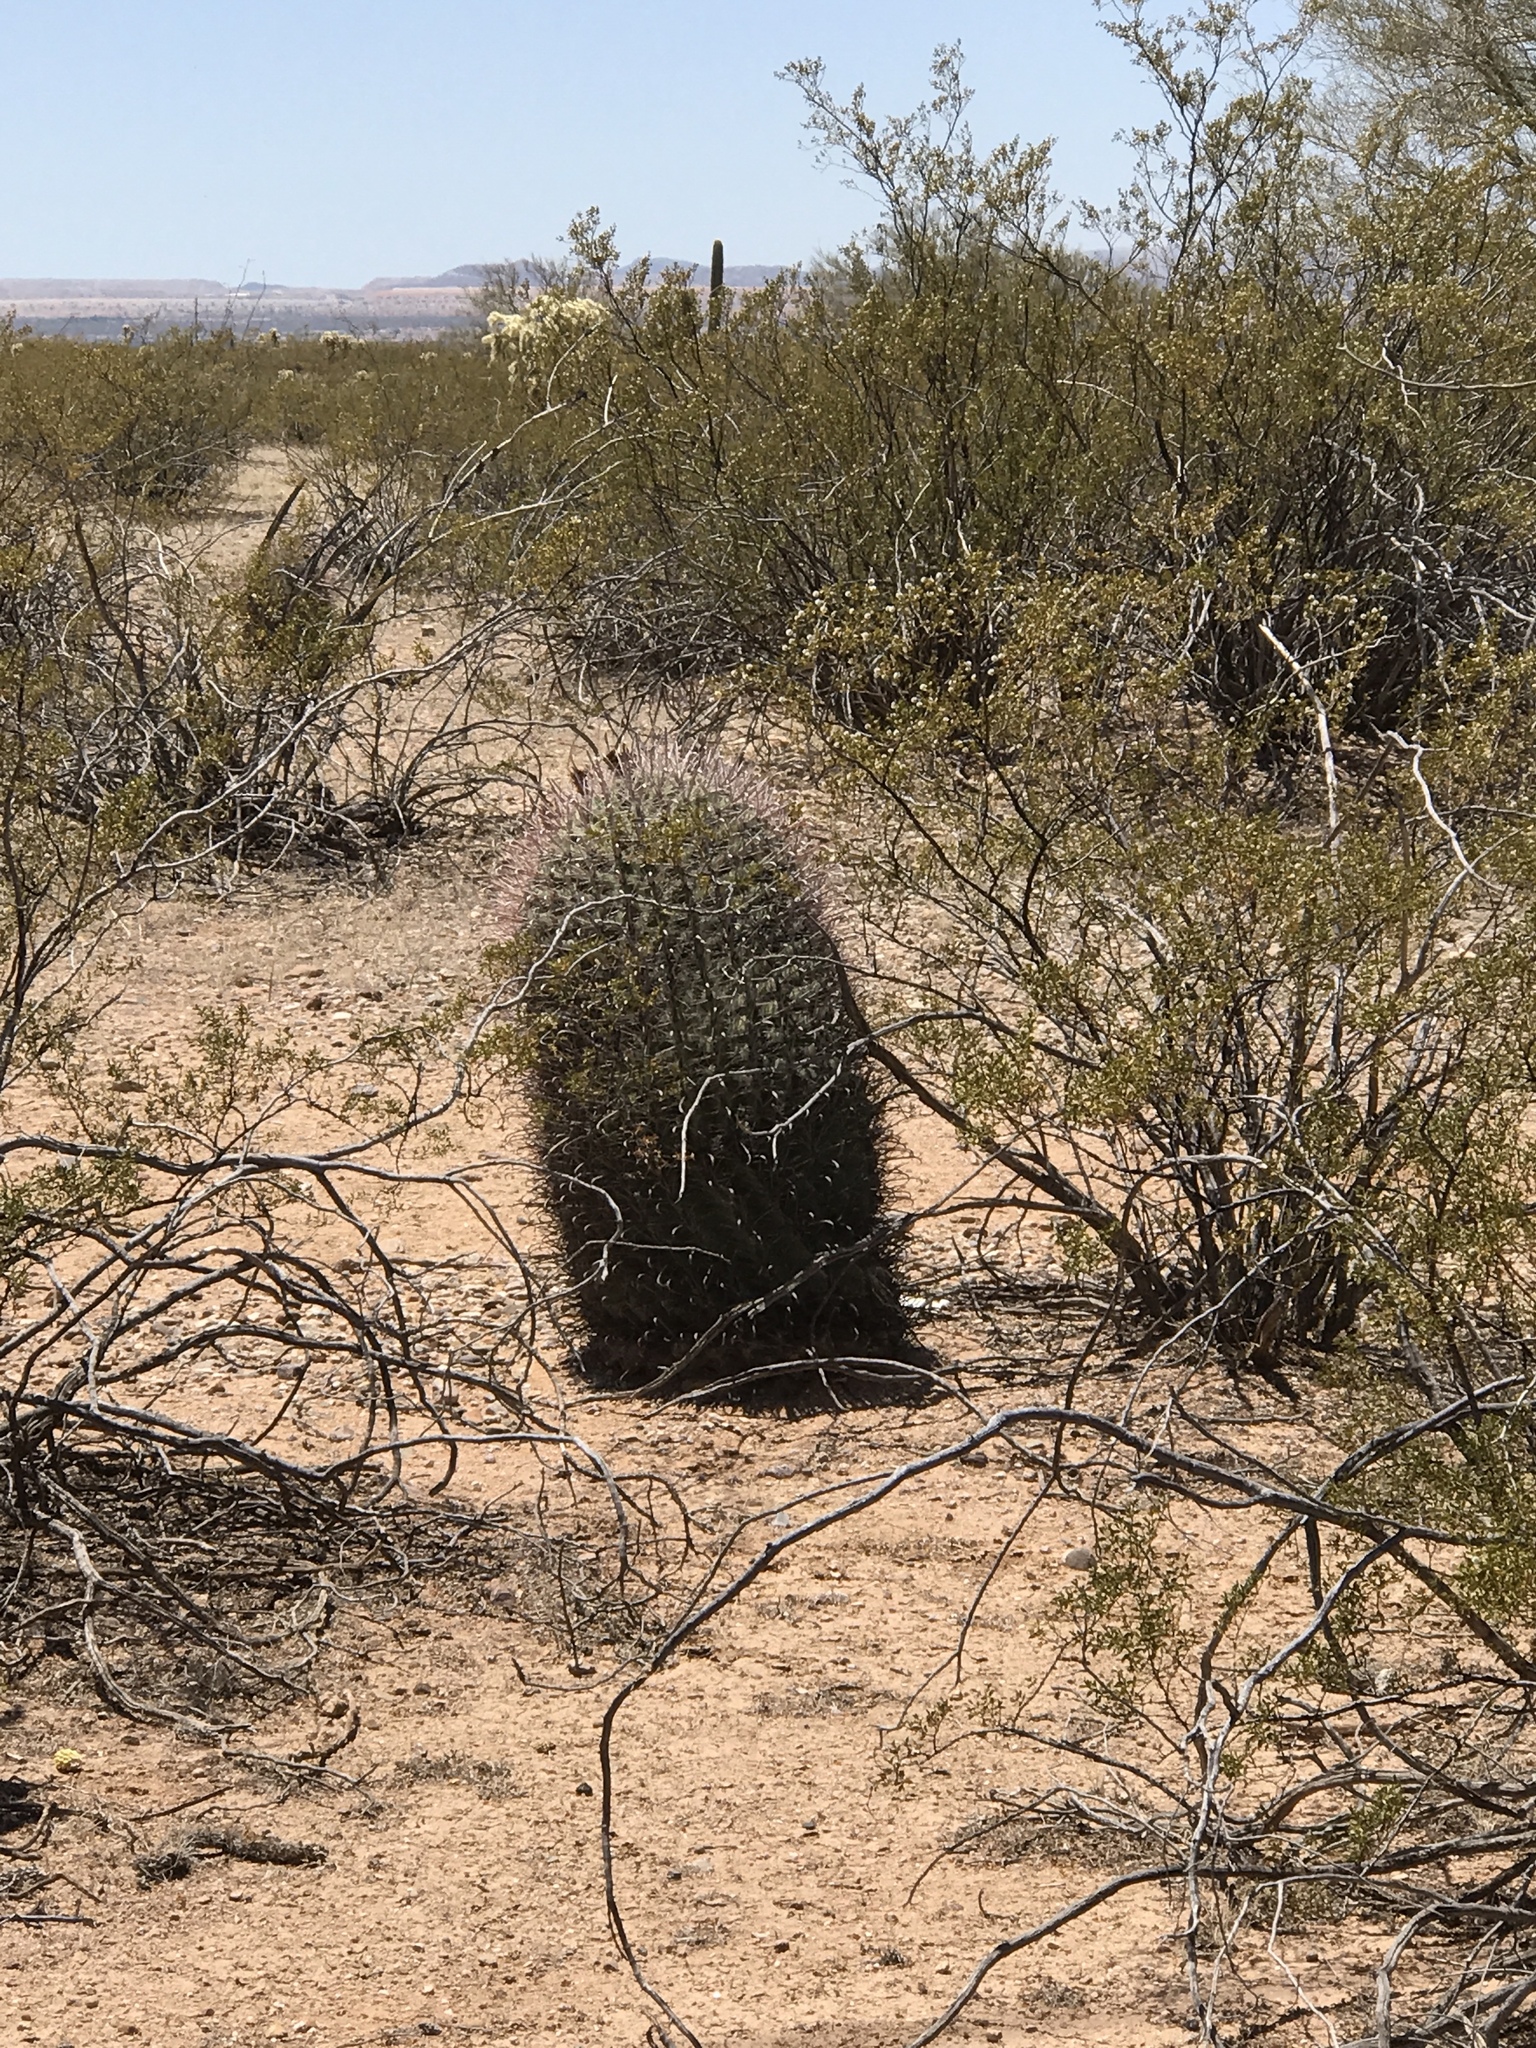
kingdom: Plantae
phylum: Tracheophyta
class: Magnoliopsida
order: Caryophyllales
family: Cactaceae
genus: Ferocactus
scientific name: Ferocactus wislizeni
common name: Candy barrel cactus
